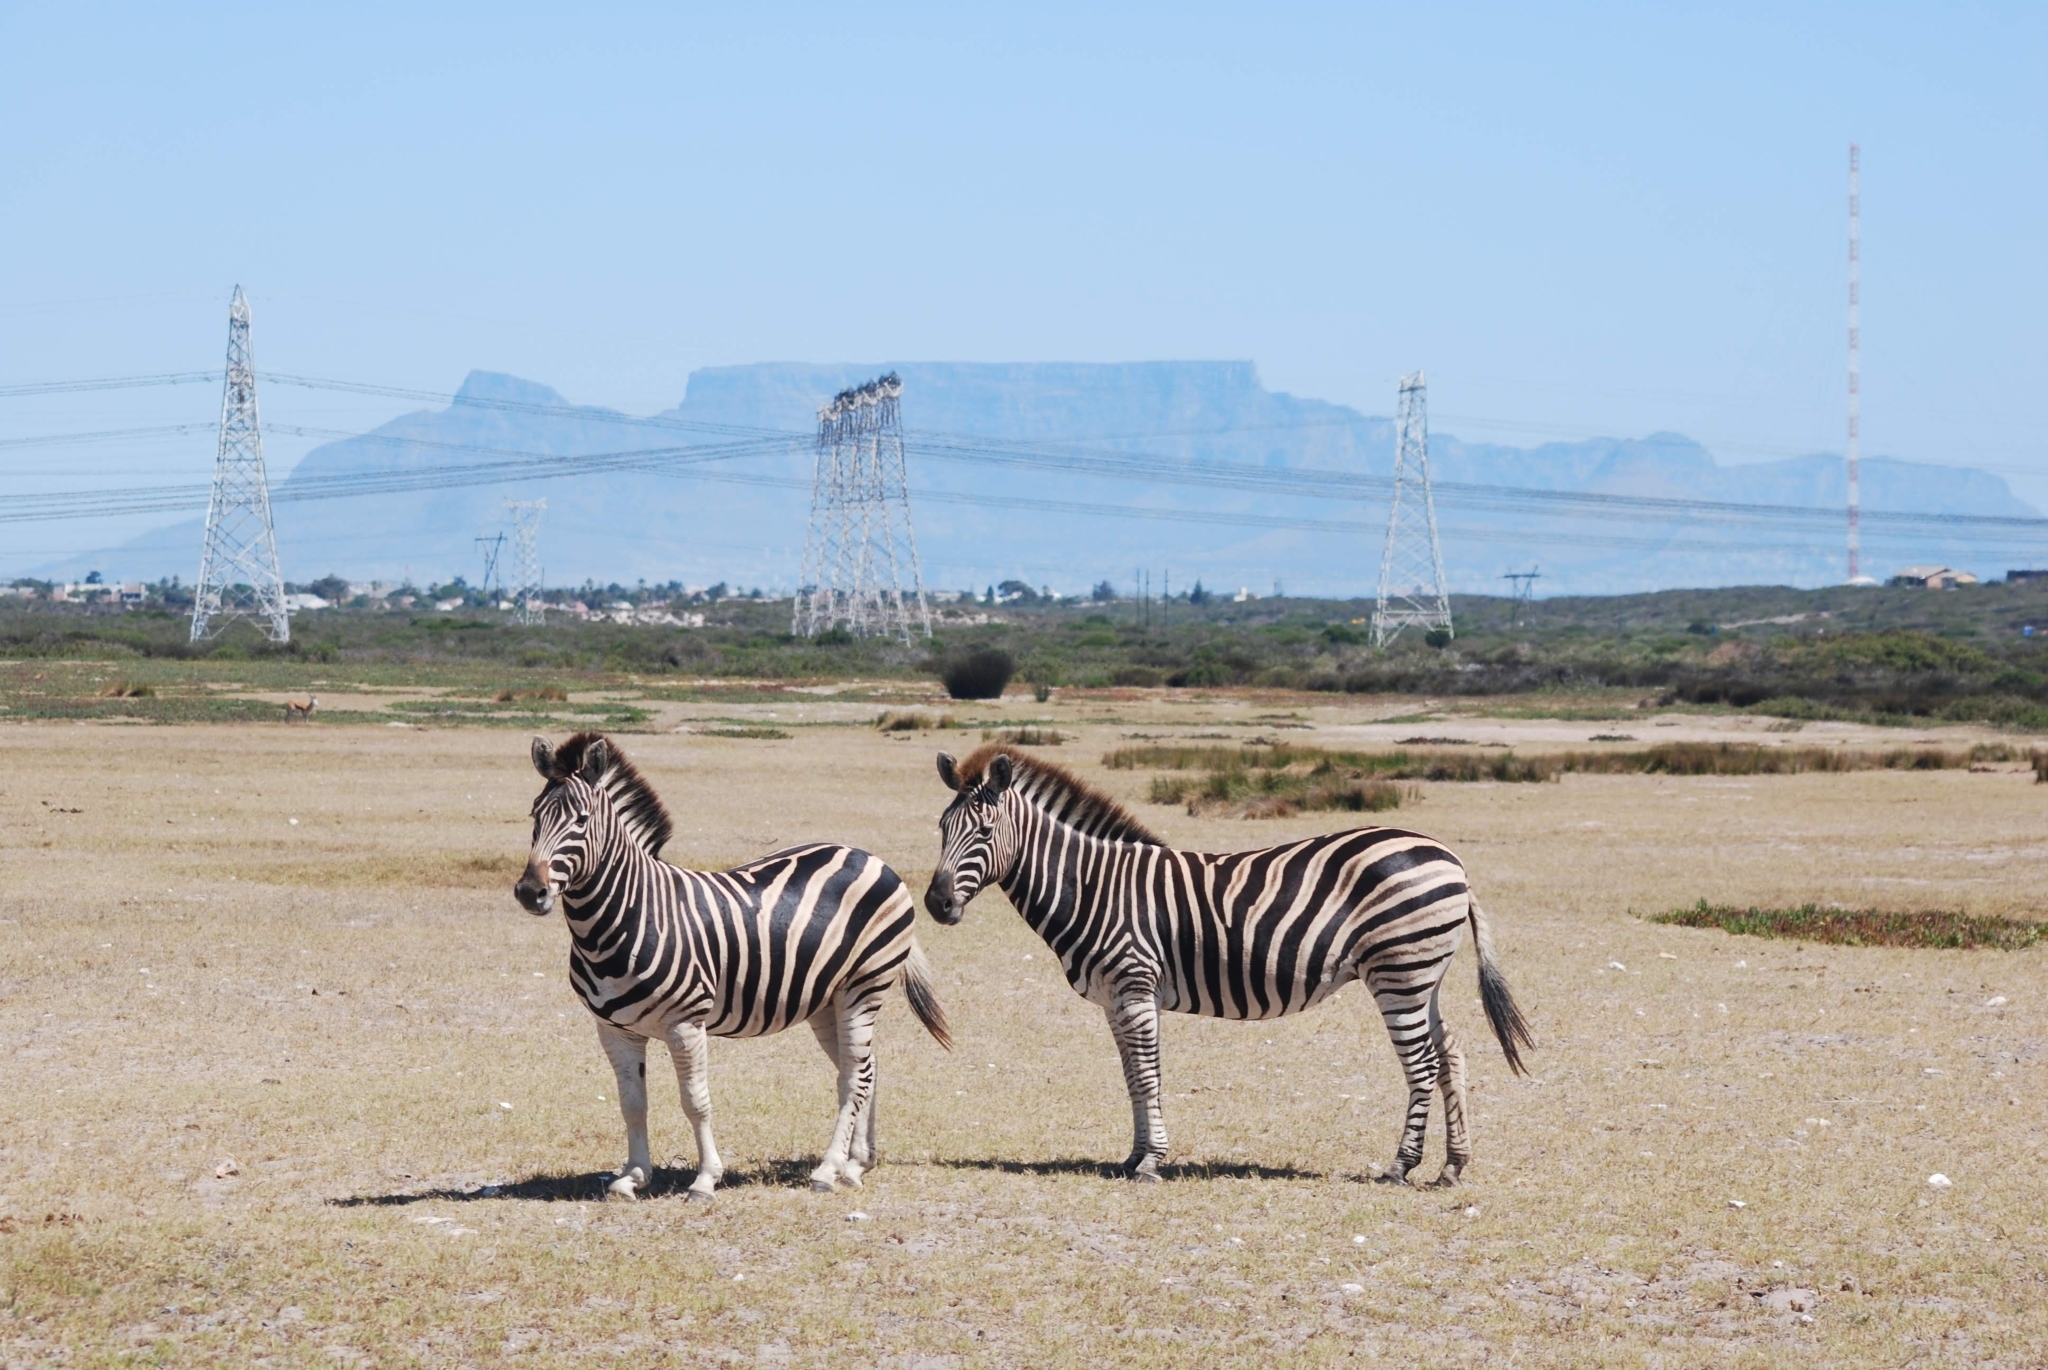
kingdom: Animalia
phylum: Chordata
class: Mammalia
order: Perissodactyla
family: Equidae
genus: Equus
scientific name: Equus quagga
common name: Plains zebra
